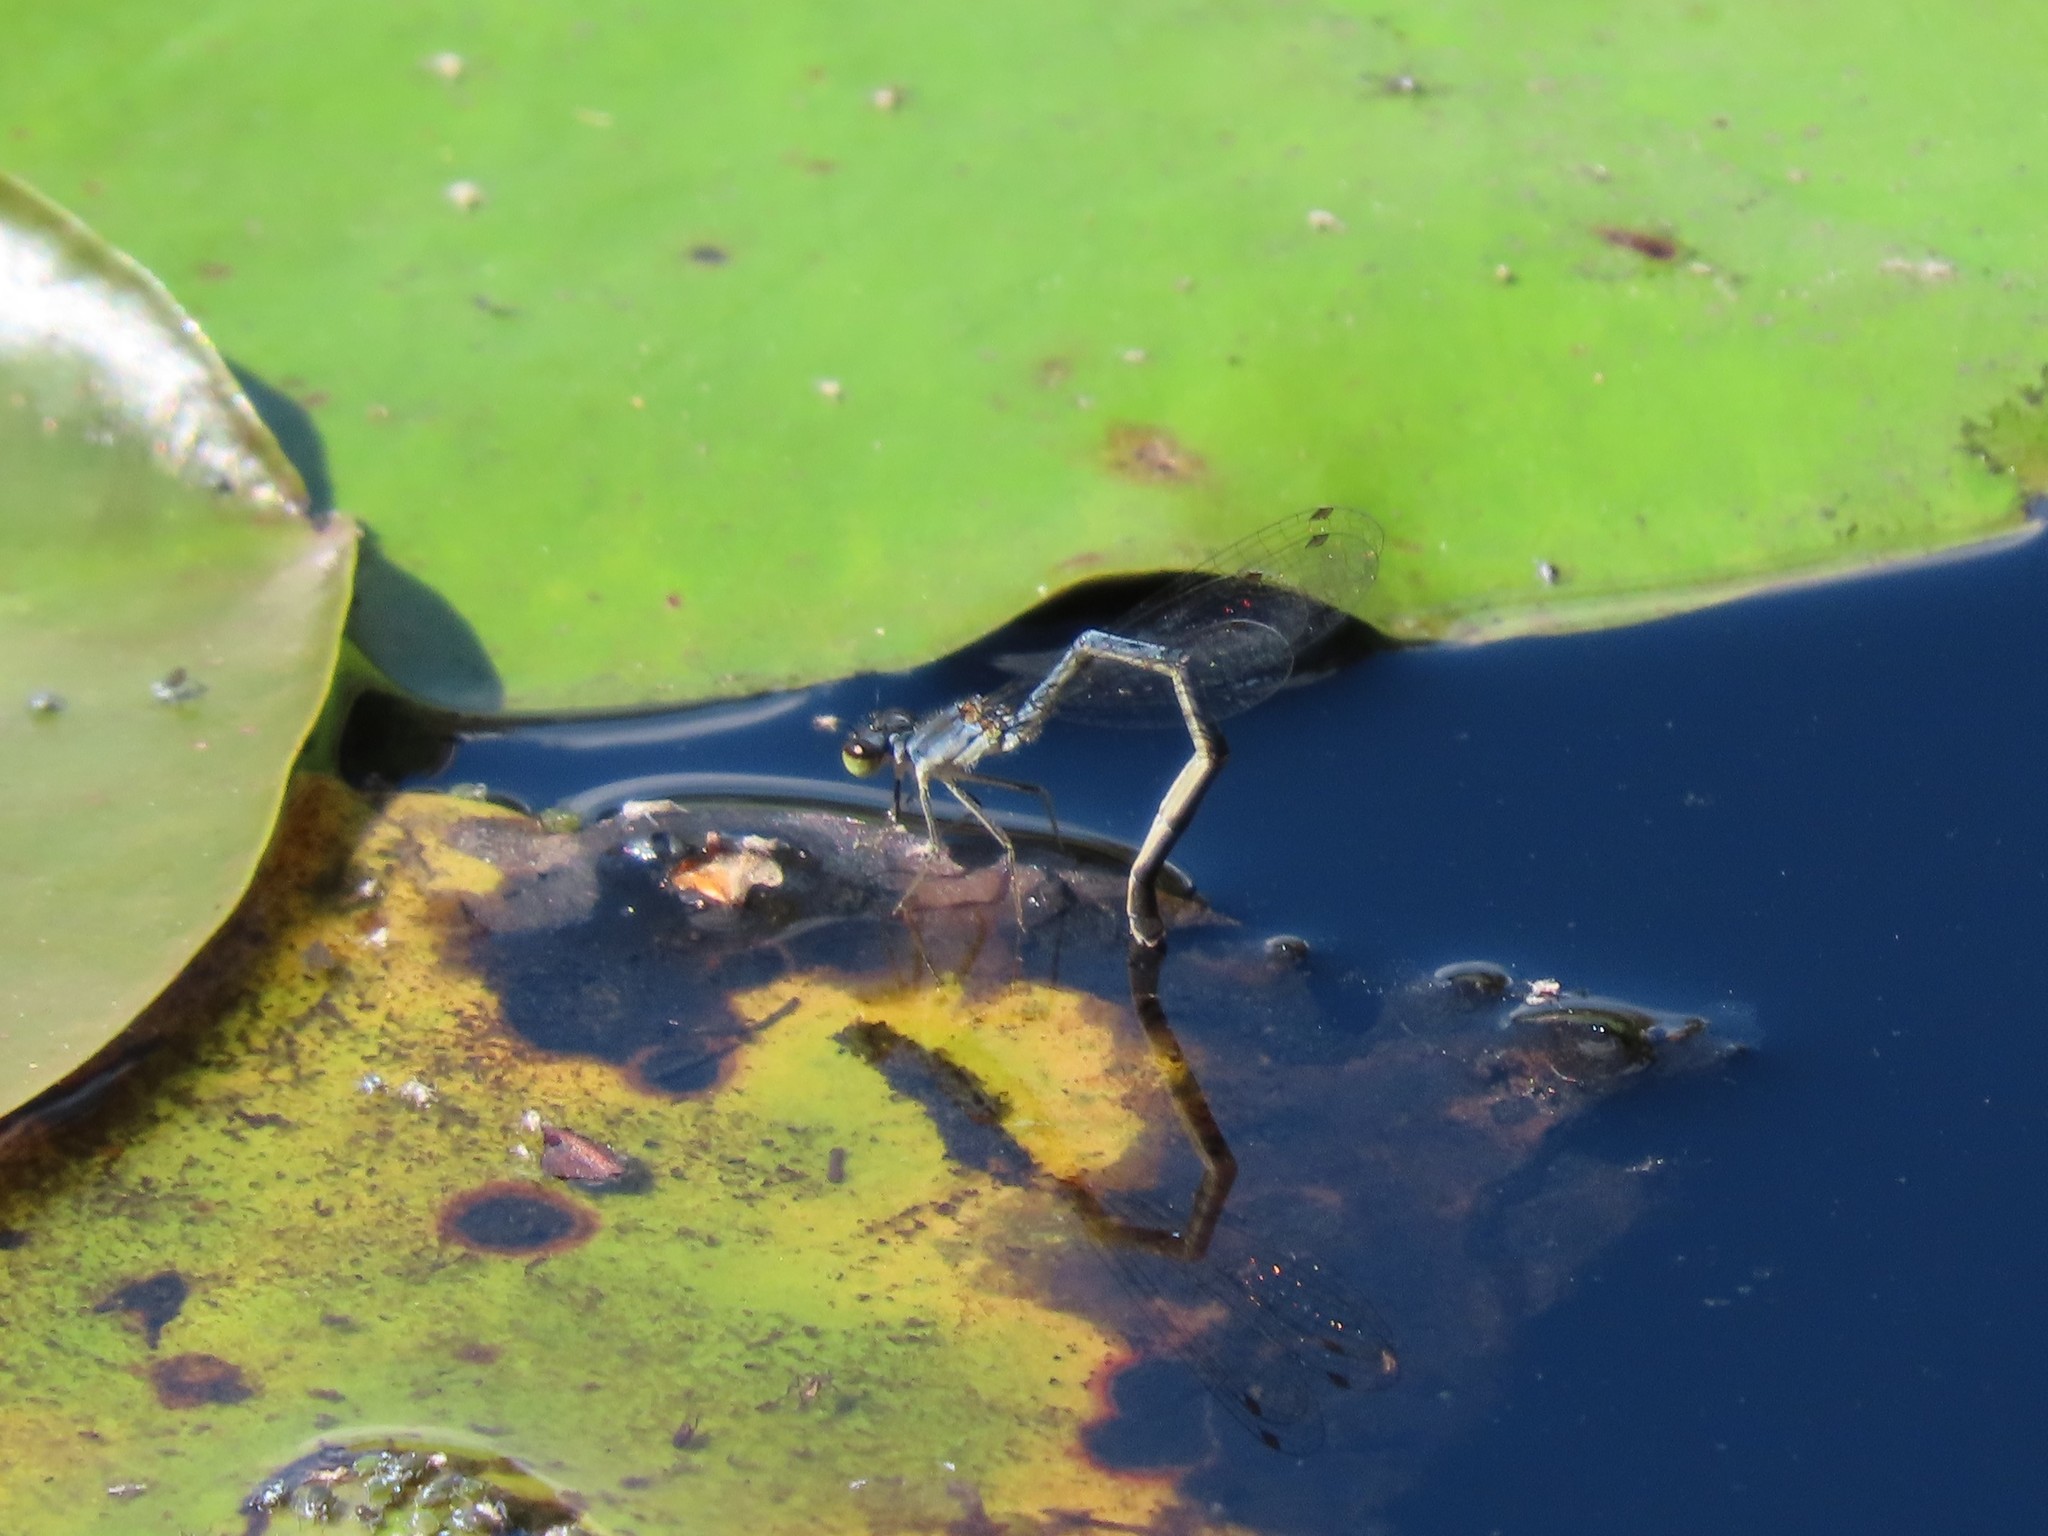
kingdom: Animalia
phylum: Arthropoda
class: Insecta
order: Odonata
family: Coenagrionidae
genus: Ischnura
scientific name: Ischnura posita
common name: Fragile forktail
